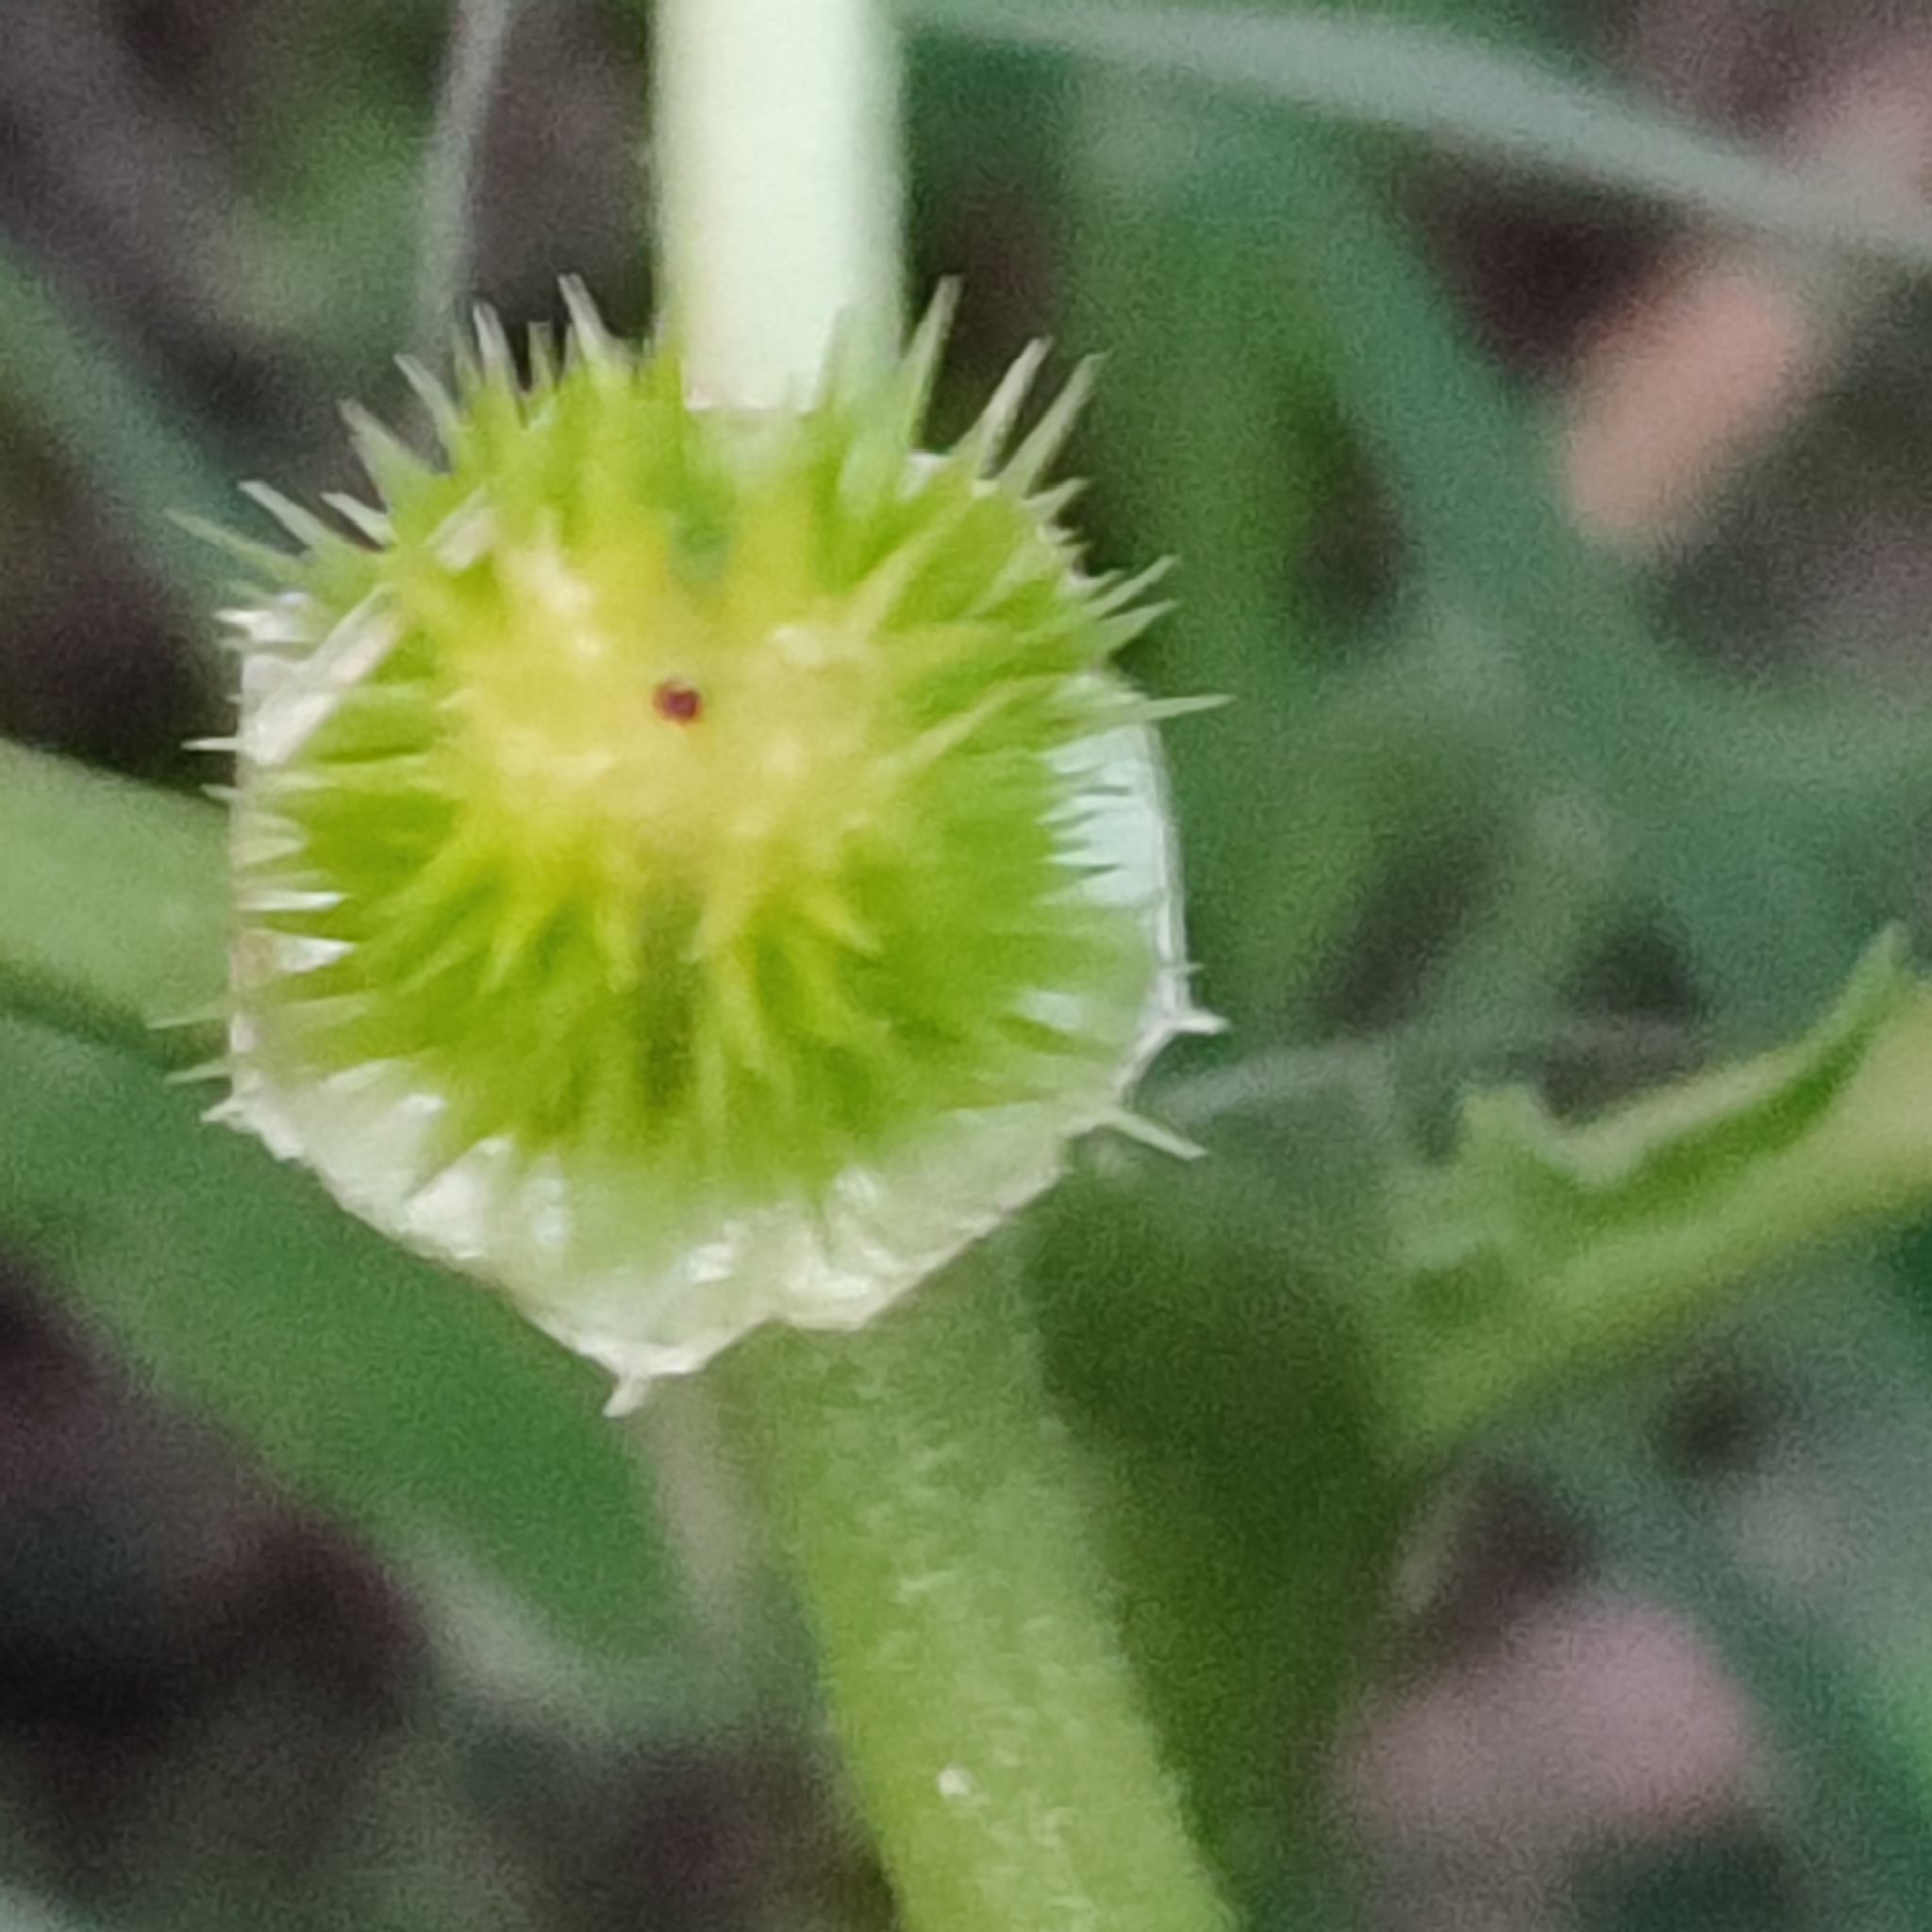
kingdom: Plantae
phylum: Tracheophyta
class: Magnoliopsida
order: Solanales
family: Solanaceae
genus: Datura
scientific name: Datura stramonium
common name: Thorn-apple
